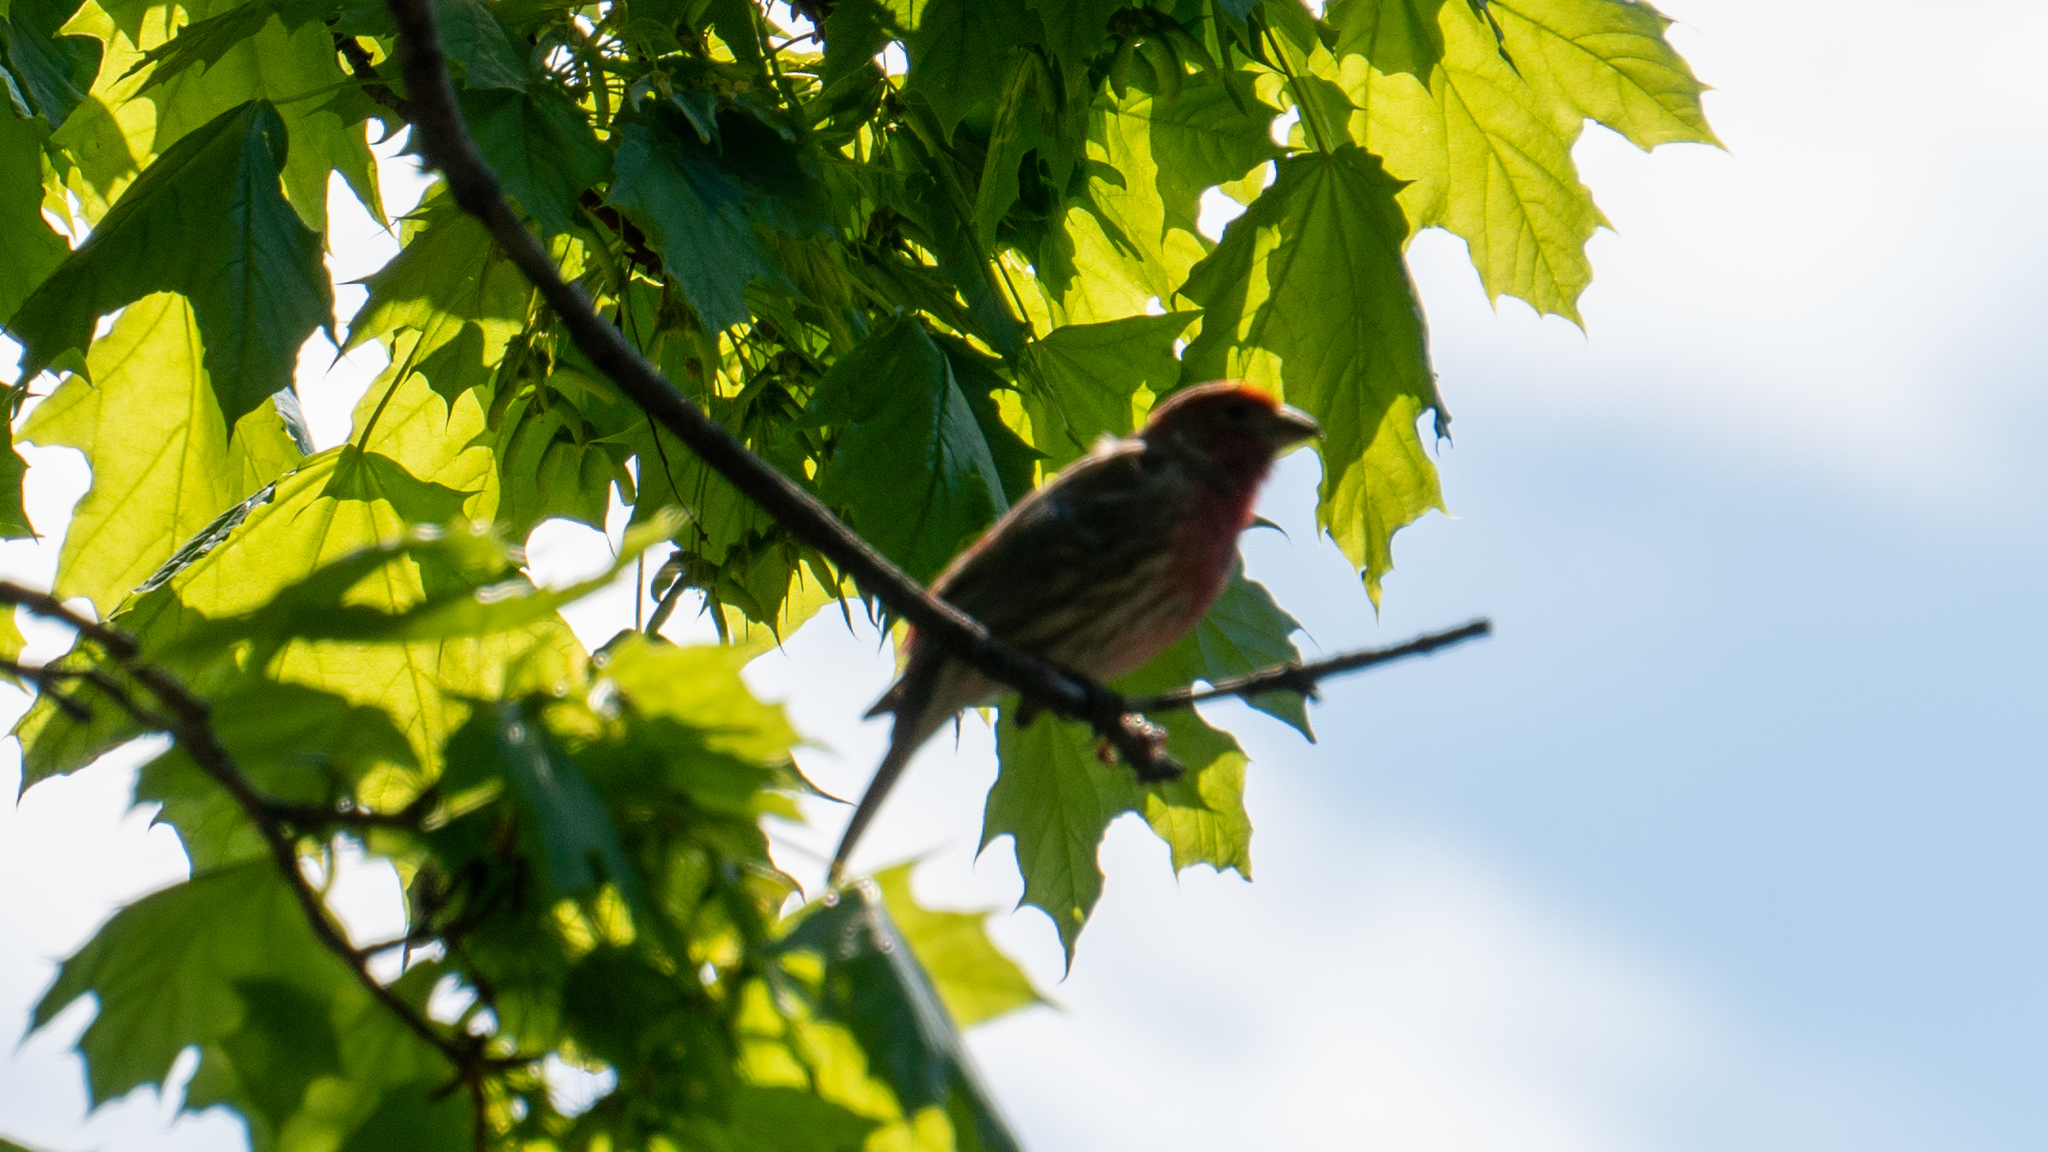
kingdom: Animalia
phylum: Chordata
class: Aves
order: Passeriformes
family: Fringillidae
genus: Haemorhous
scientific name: Haemorhous mexicanus
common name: House finch
